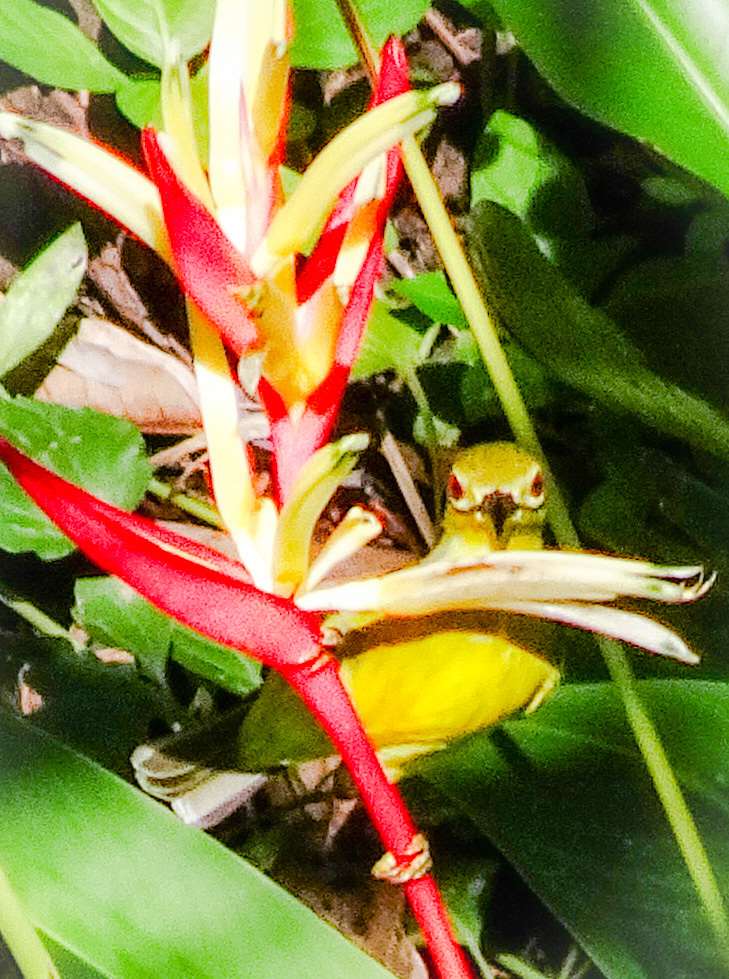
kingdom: Animalia
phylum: Chordata
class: Aves
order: Passeriformes
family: Nectariniidae
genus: Anthreptes
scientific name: Anthreptes malacensis
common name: Brown-throated sunbird
